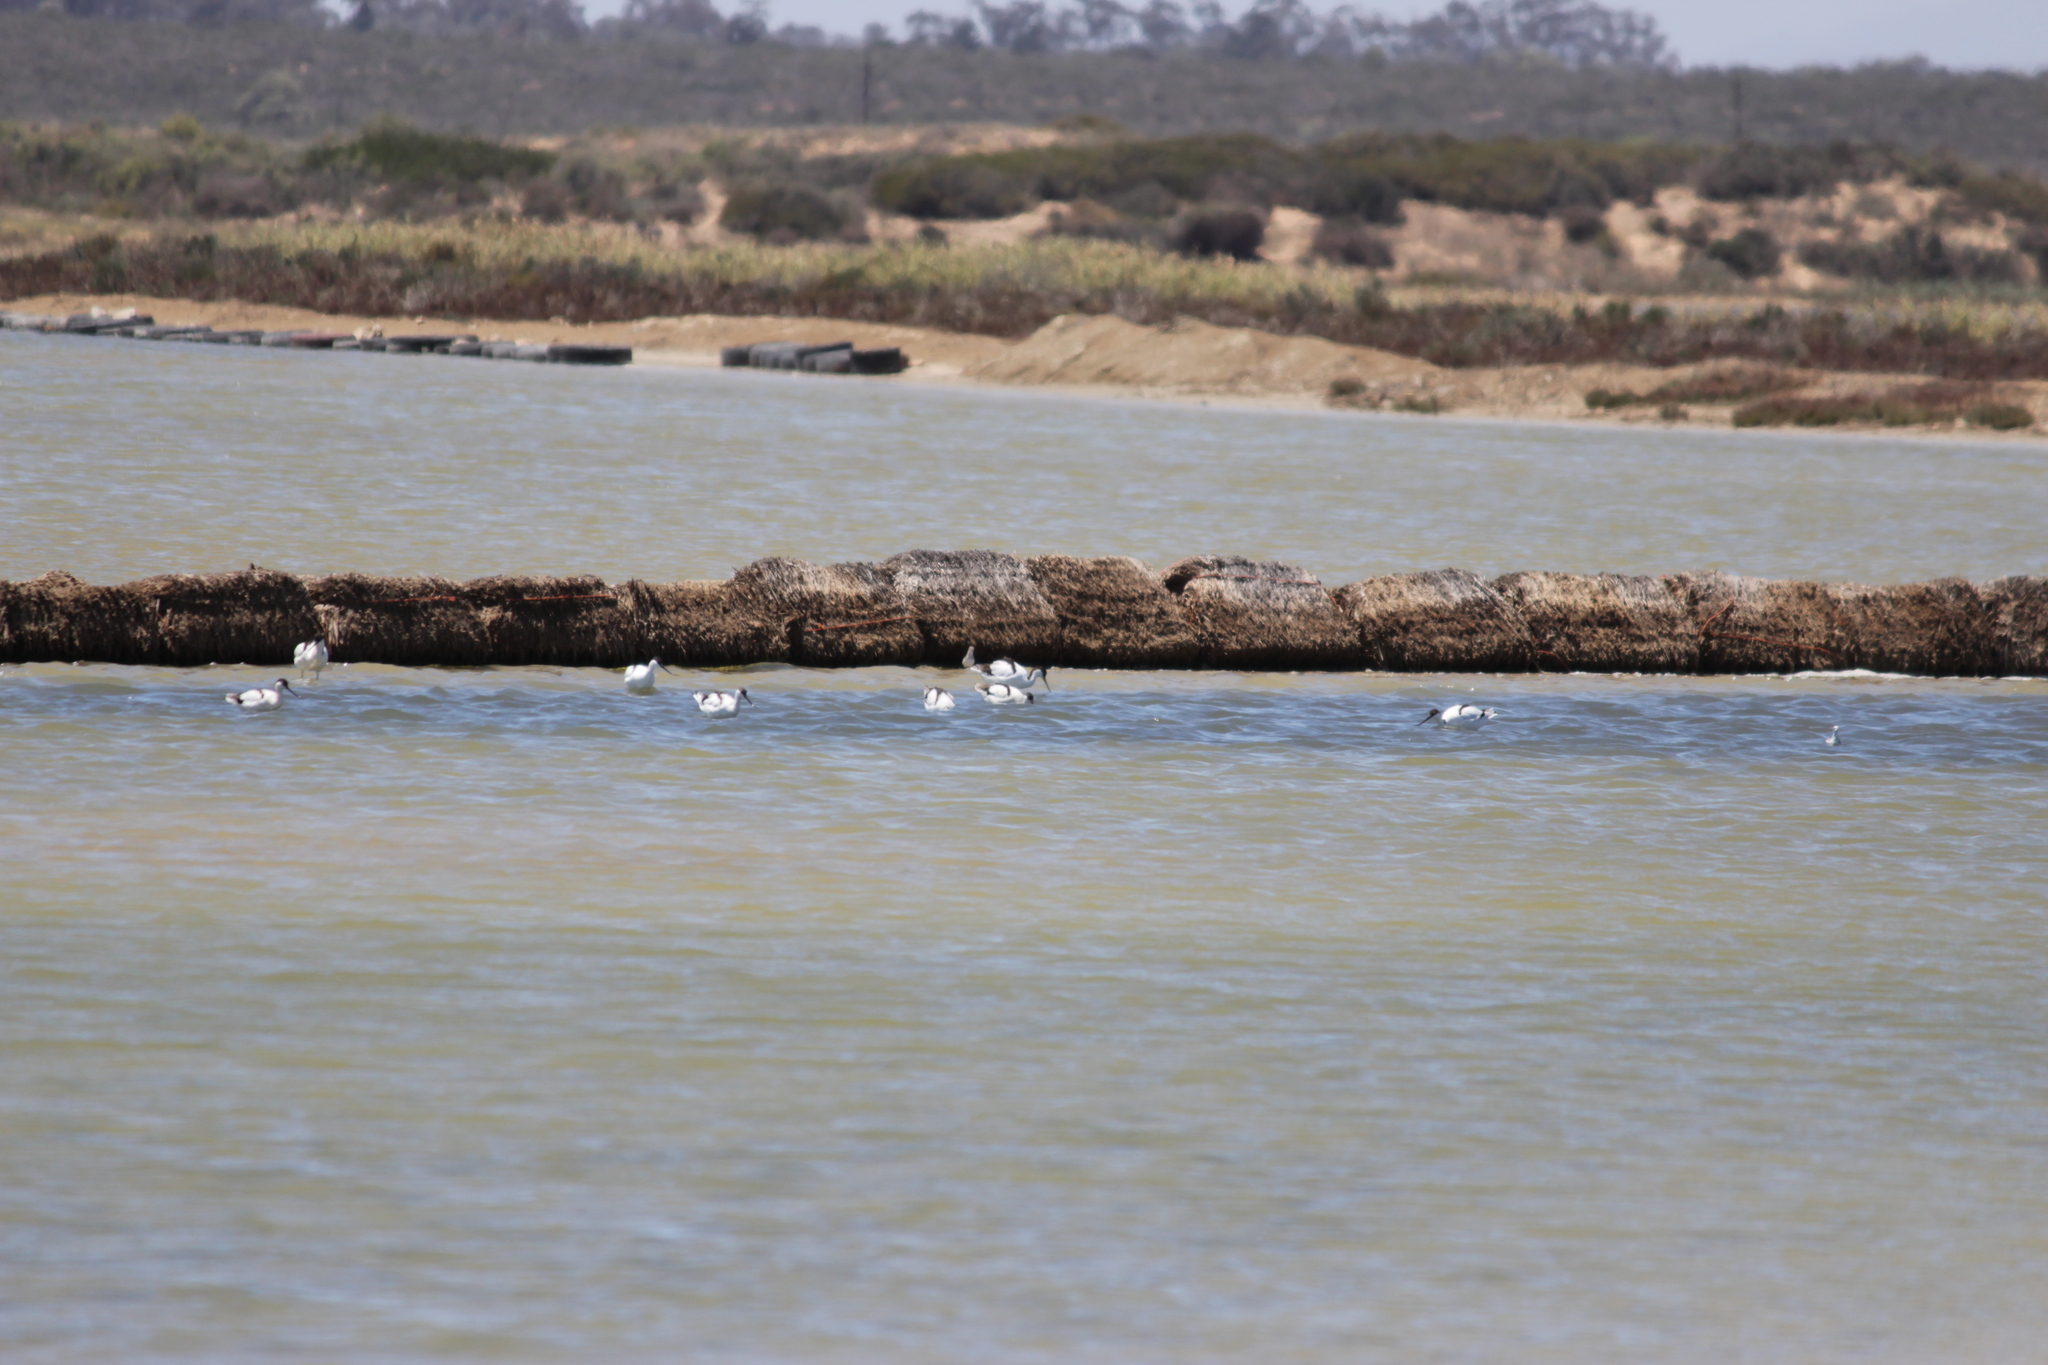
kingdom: Animalia
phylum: Chordata
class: Aves
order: Charadriiformes
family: Recurvirostridae
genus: Recurvirostra
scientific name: Recurvirostra avosetta
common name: Pied avocet
